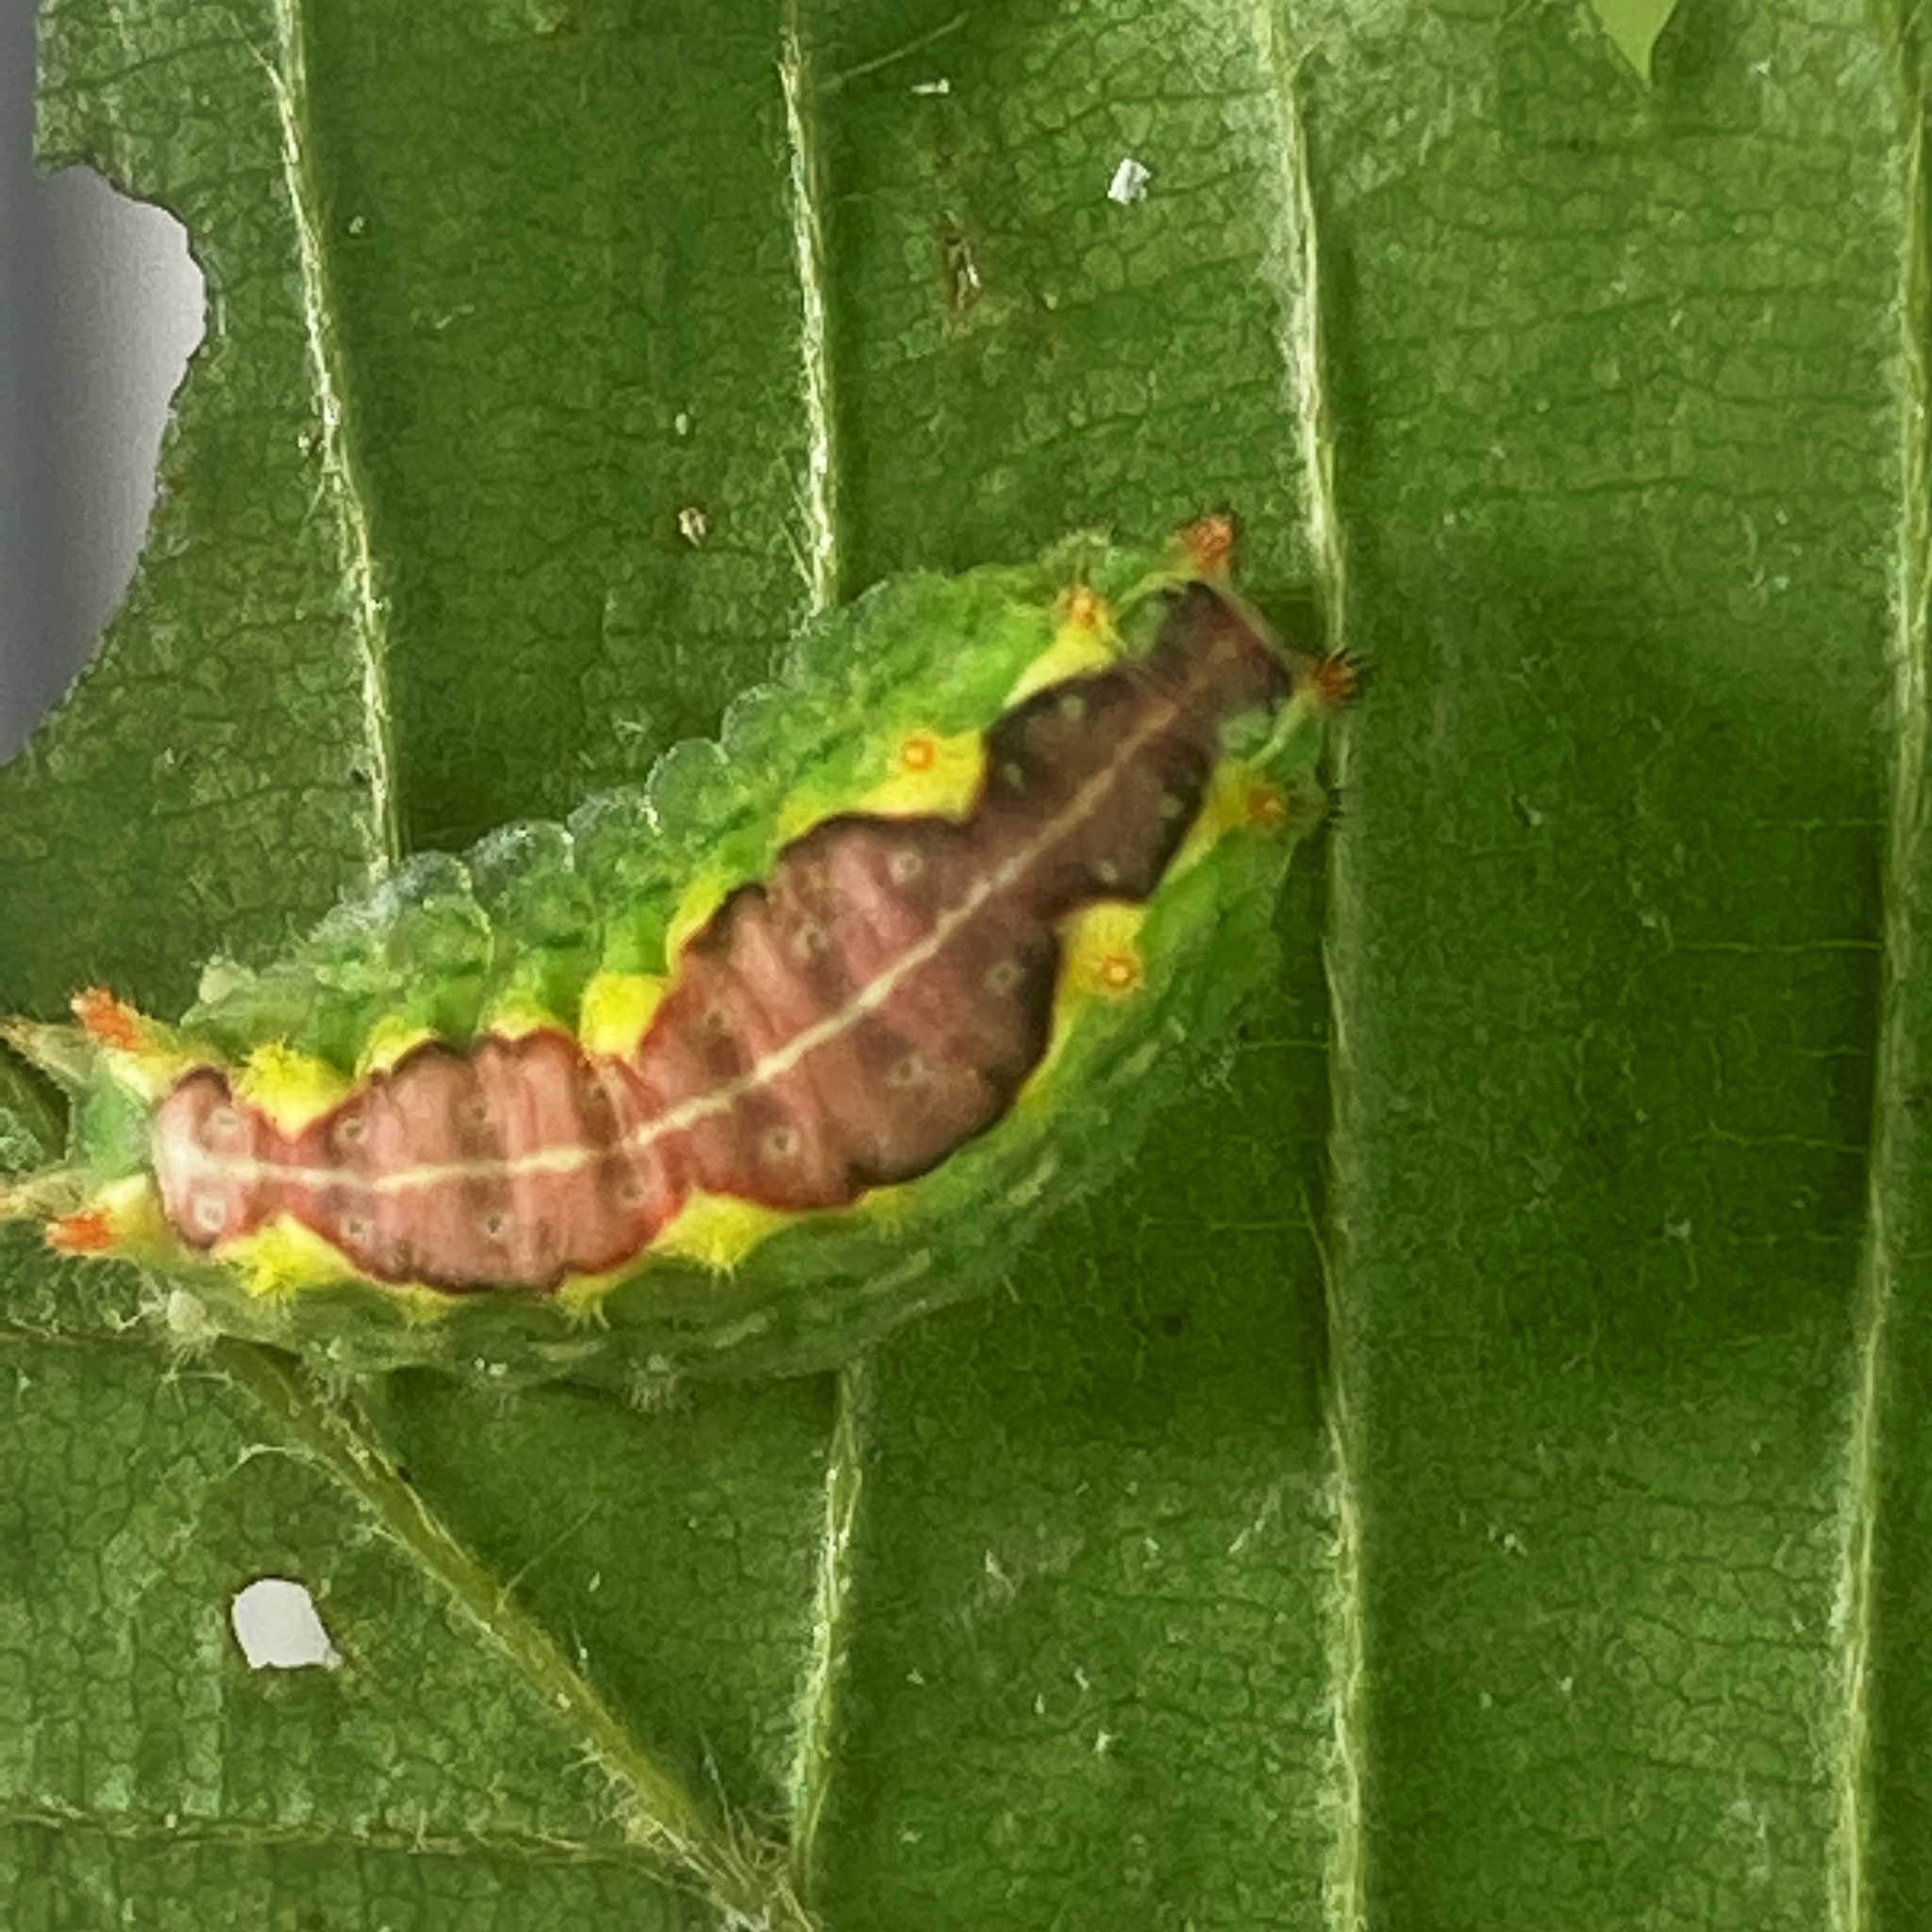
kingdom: Animalia
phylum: Arthropoda
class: Insecta
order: Lepidoptera
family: Limacodidae
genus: Adoneta
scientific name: Adoneta spinuloides
